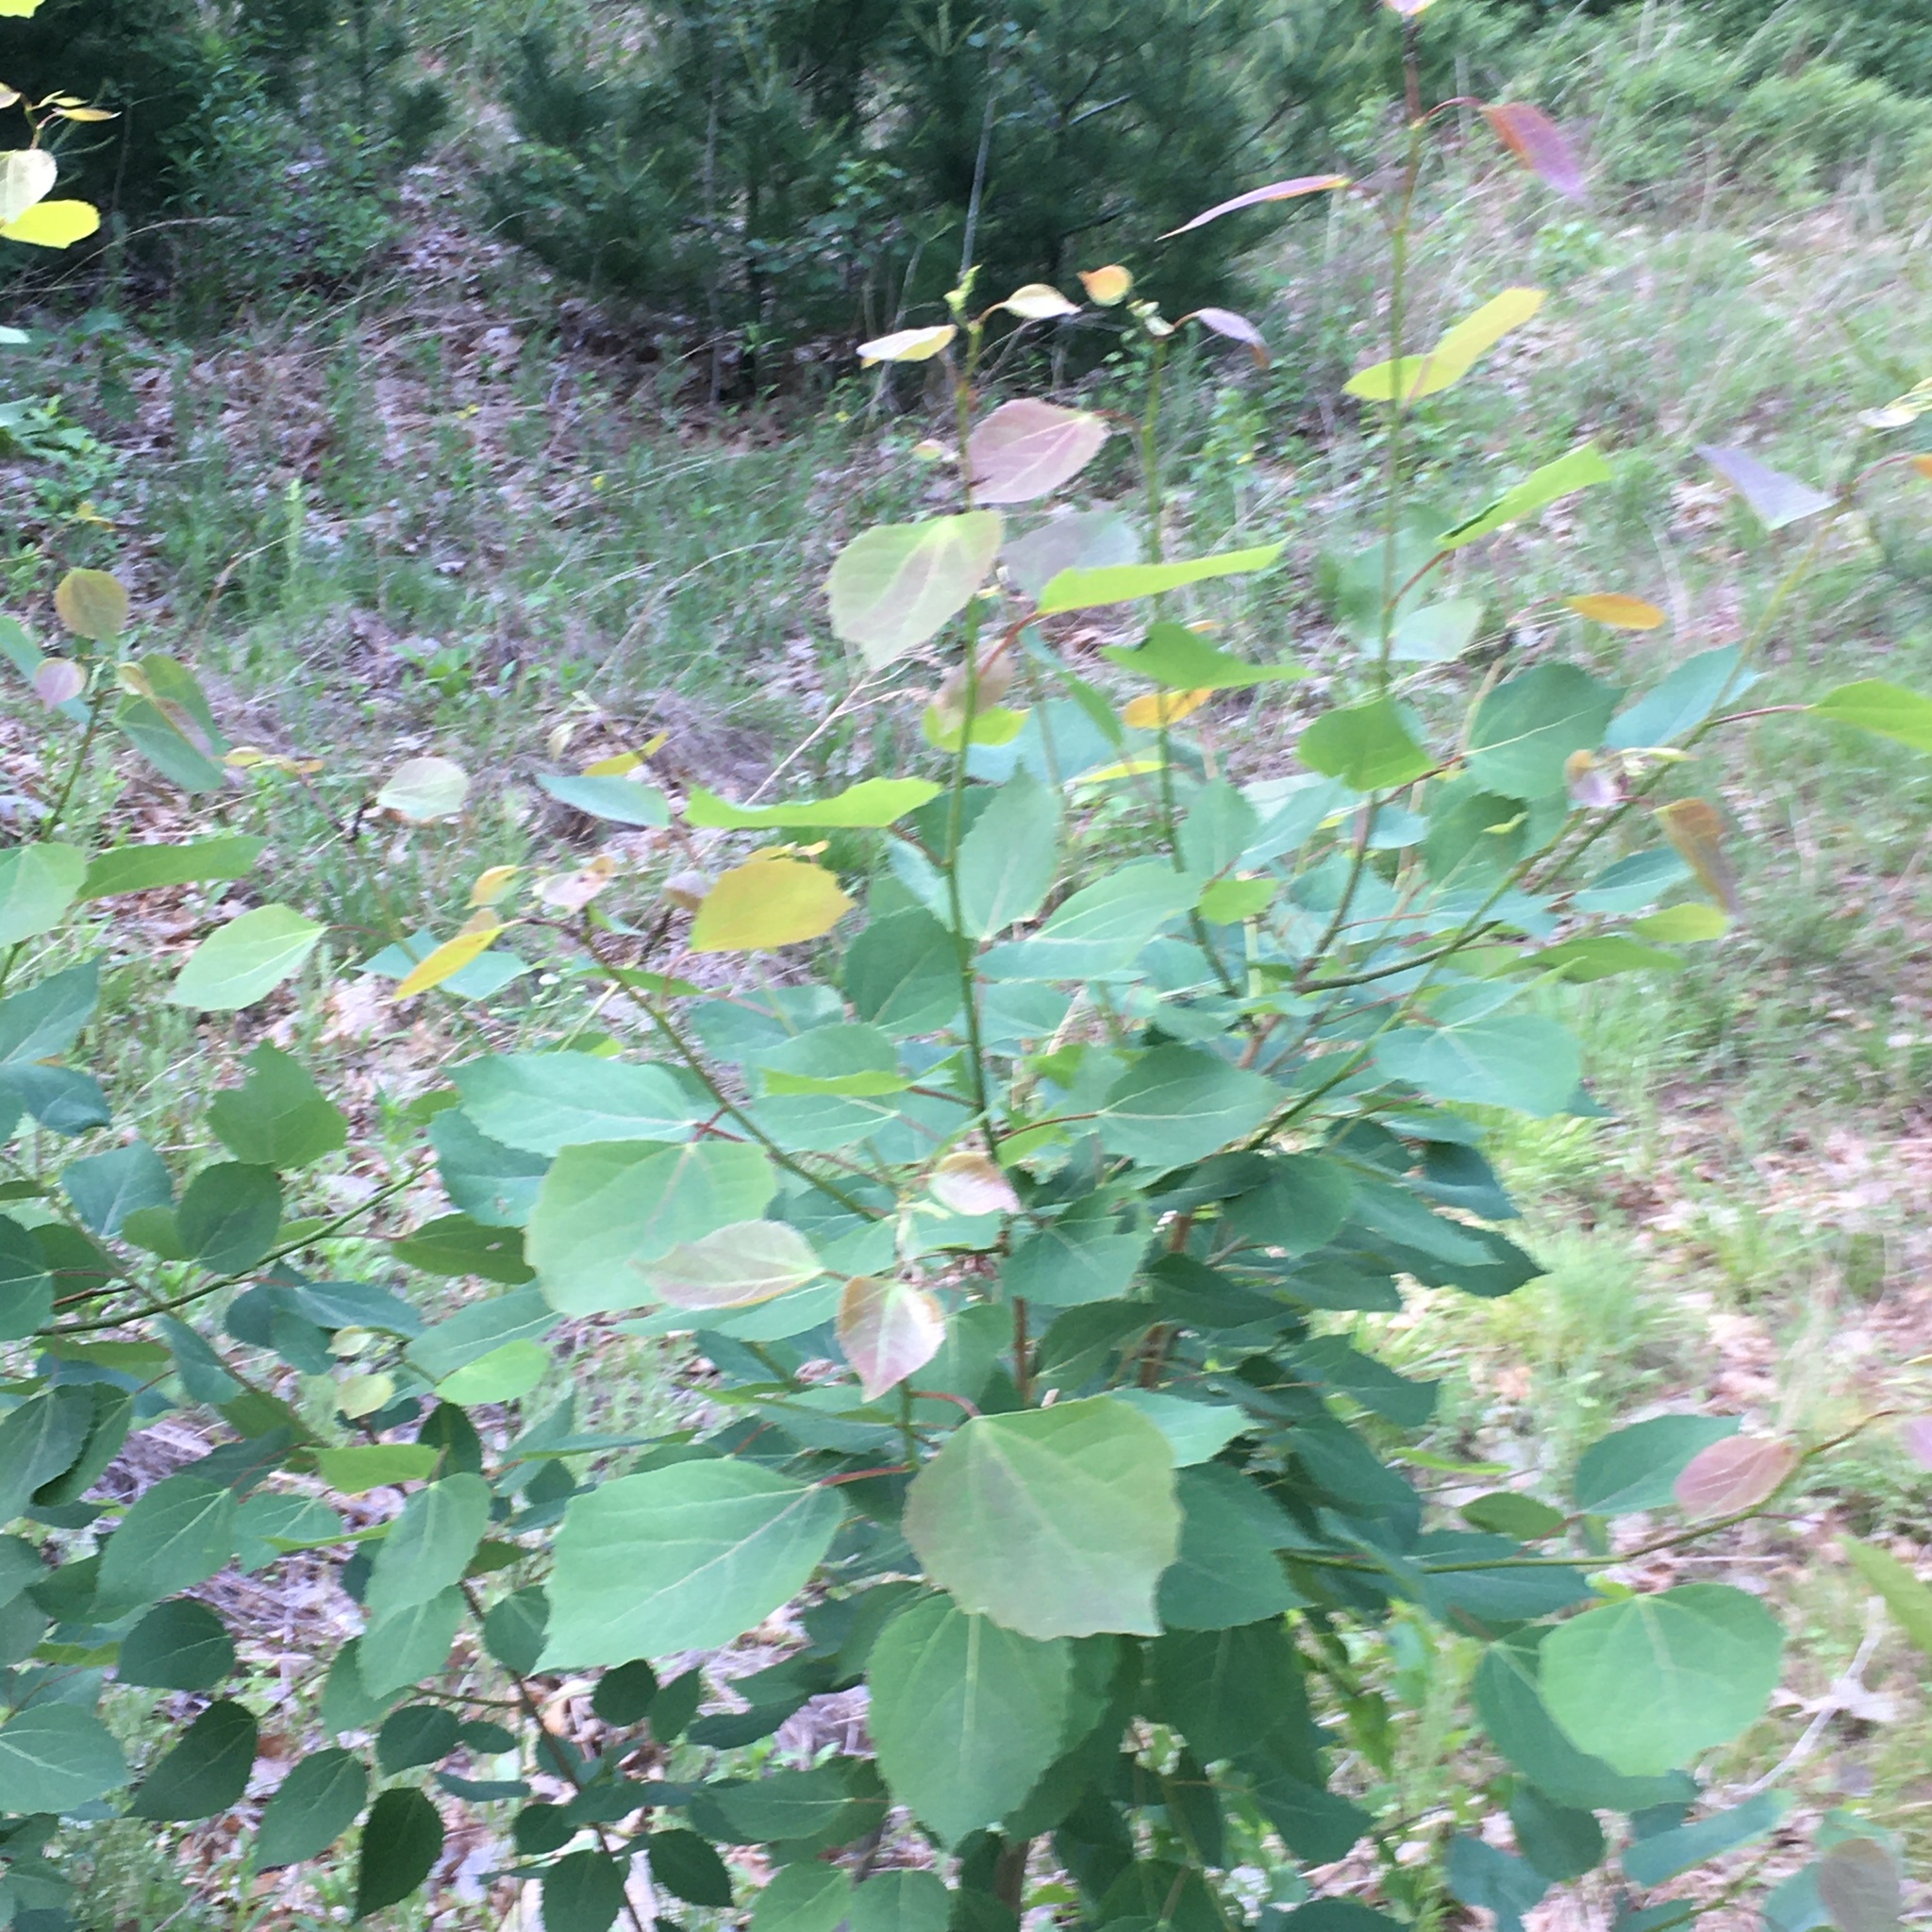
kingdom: Plantae
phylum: Tracheophyta
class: Magnoliopsida
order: Malpighiales
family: Salicaceae
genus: Populus
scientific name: Populus grandidentata
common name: Bigtooth aspen
